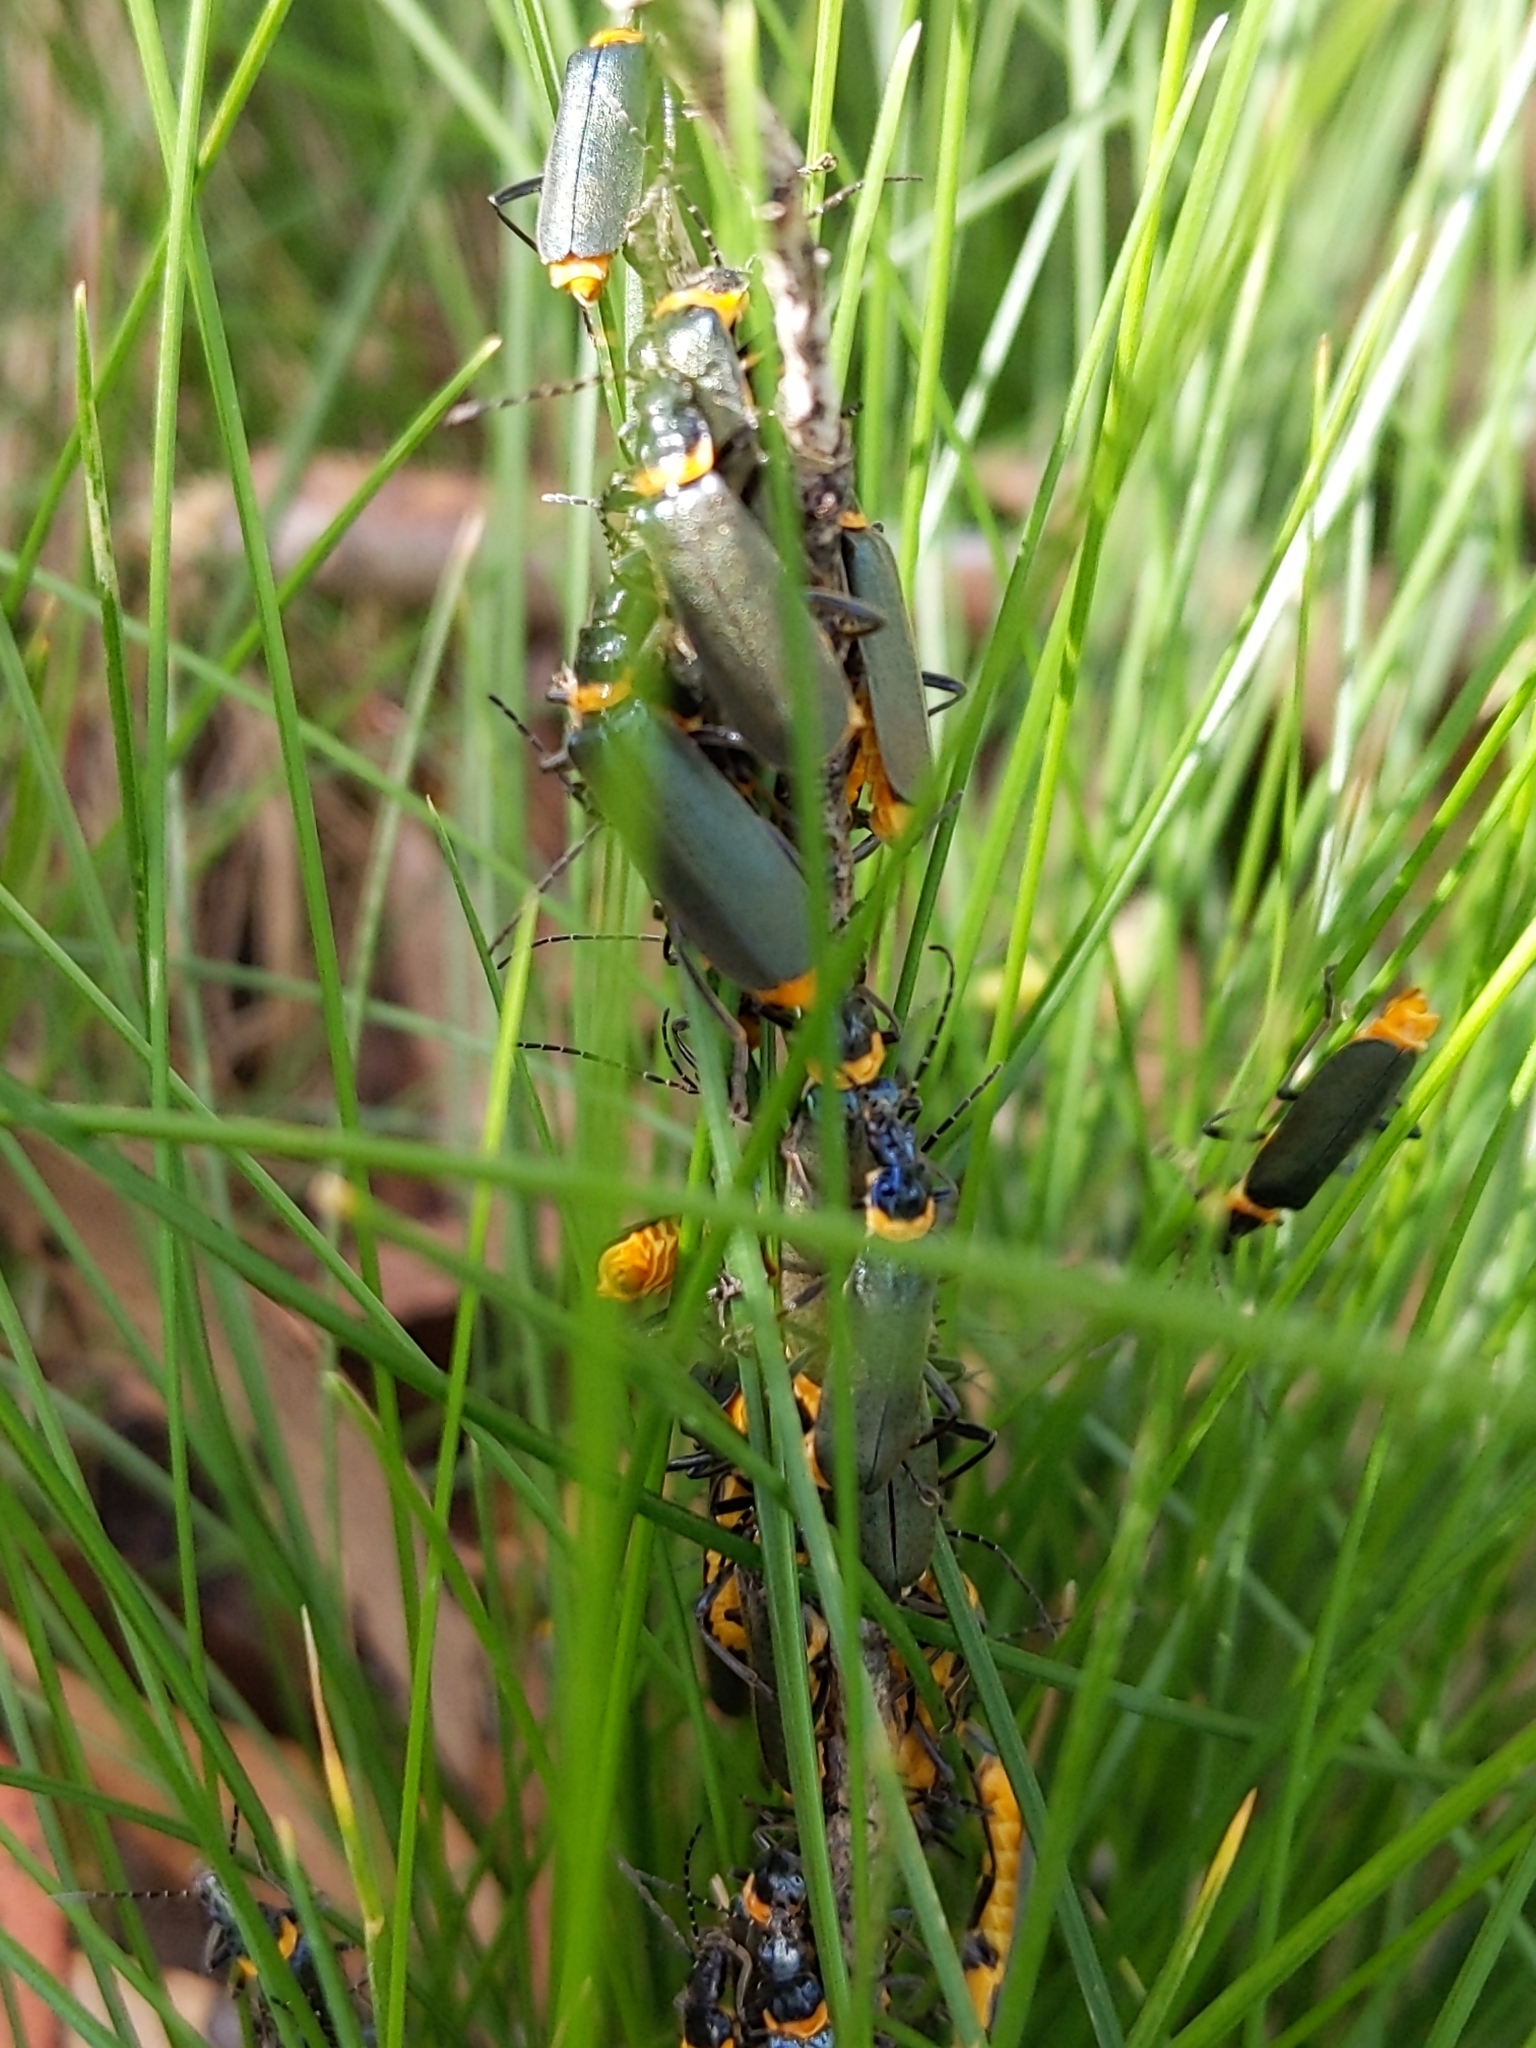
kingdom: Animalia
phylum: Arthropoda
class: Insecta
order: Coleoptera
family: Cantharidae
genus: Chauliognathus
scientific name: Chauliognathus
